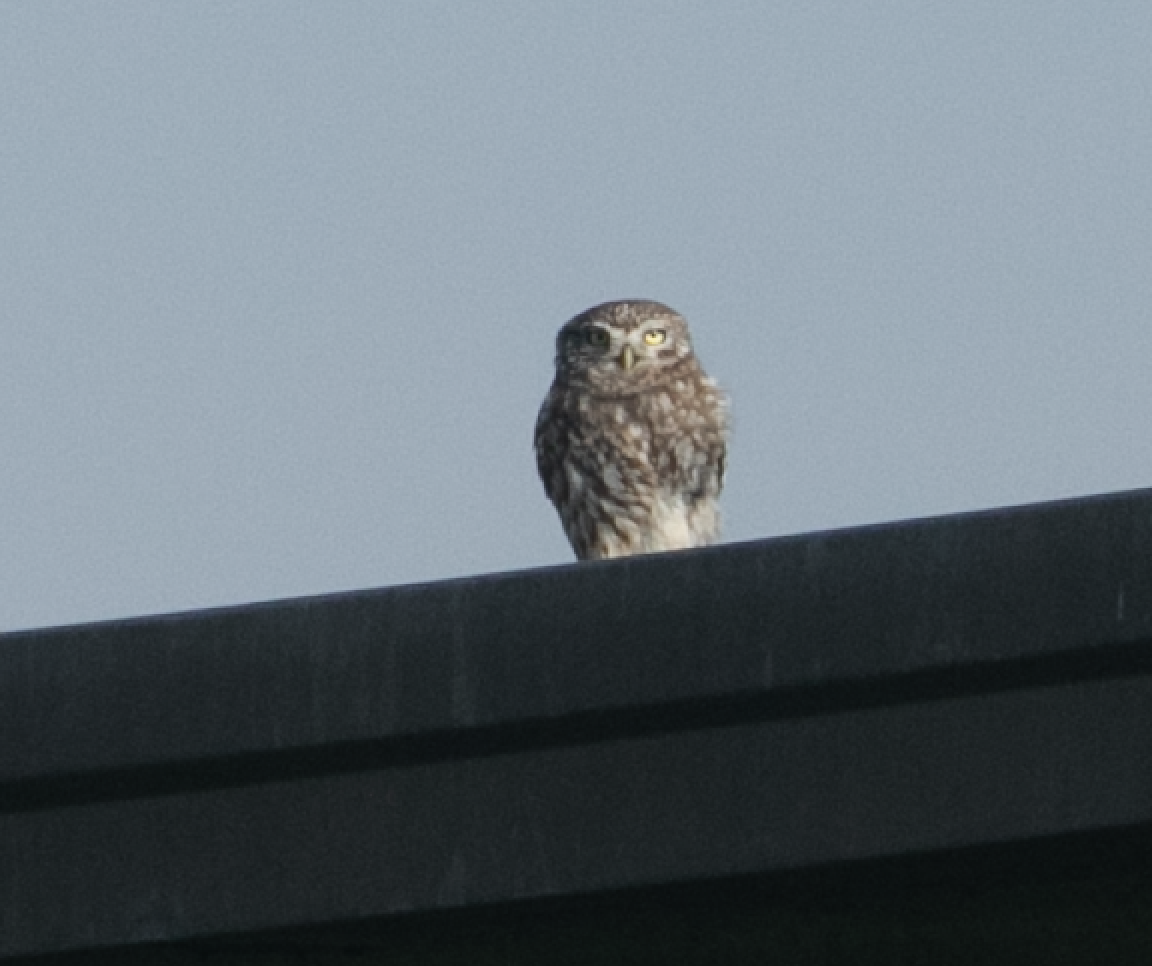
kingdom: Animalia
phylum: Chordata
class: Aves
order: Strigiformes
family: Strigidae
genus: Athene
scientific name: Athene noctua
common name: Little owl
